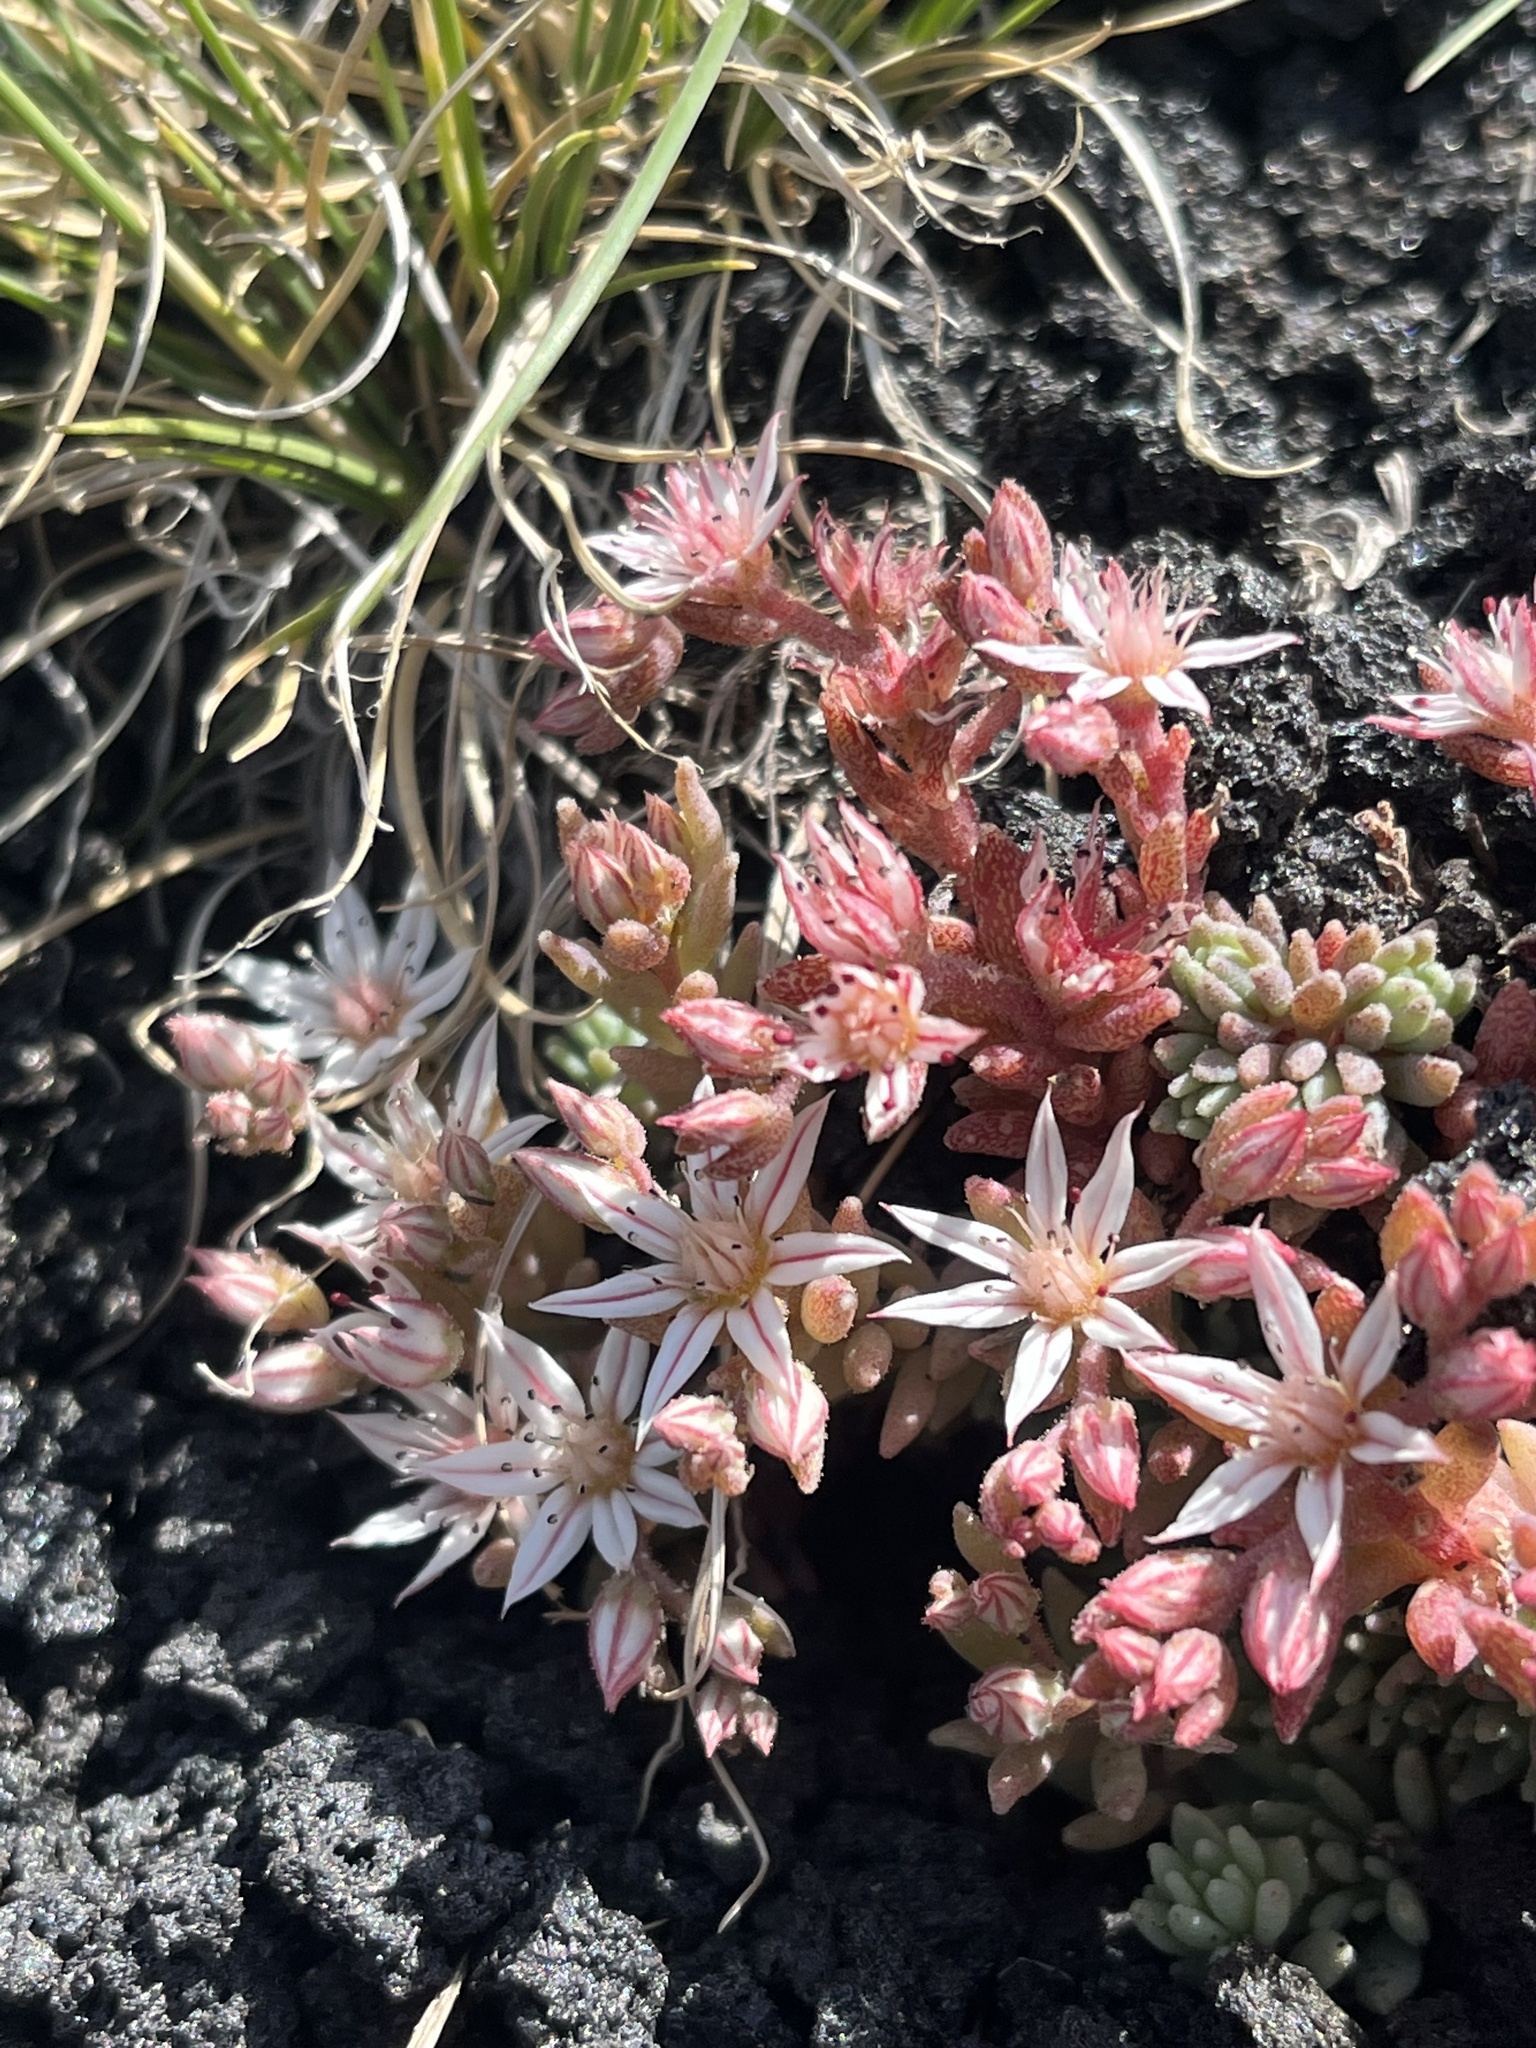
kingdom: Plantae
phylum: Tracheophyta
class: Magnoliopsida
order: Saxifragales
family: Crassulaceae
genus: Sedum
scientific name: Sedum hispanicum
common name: Spanish stonecrop
